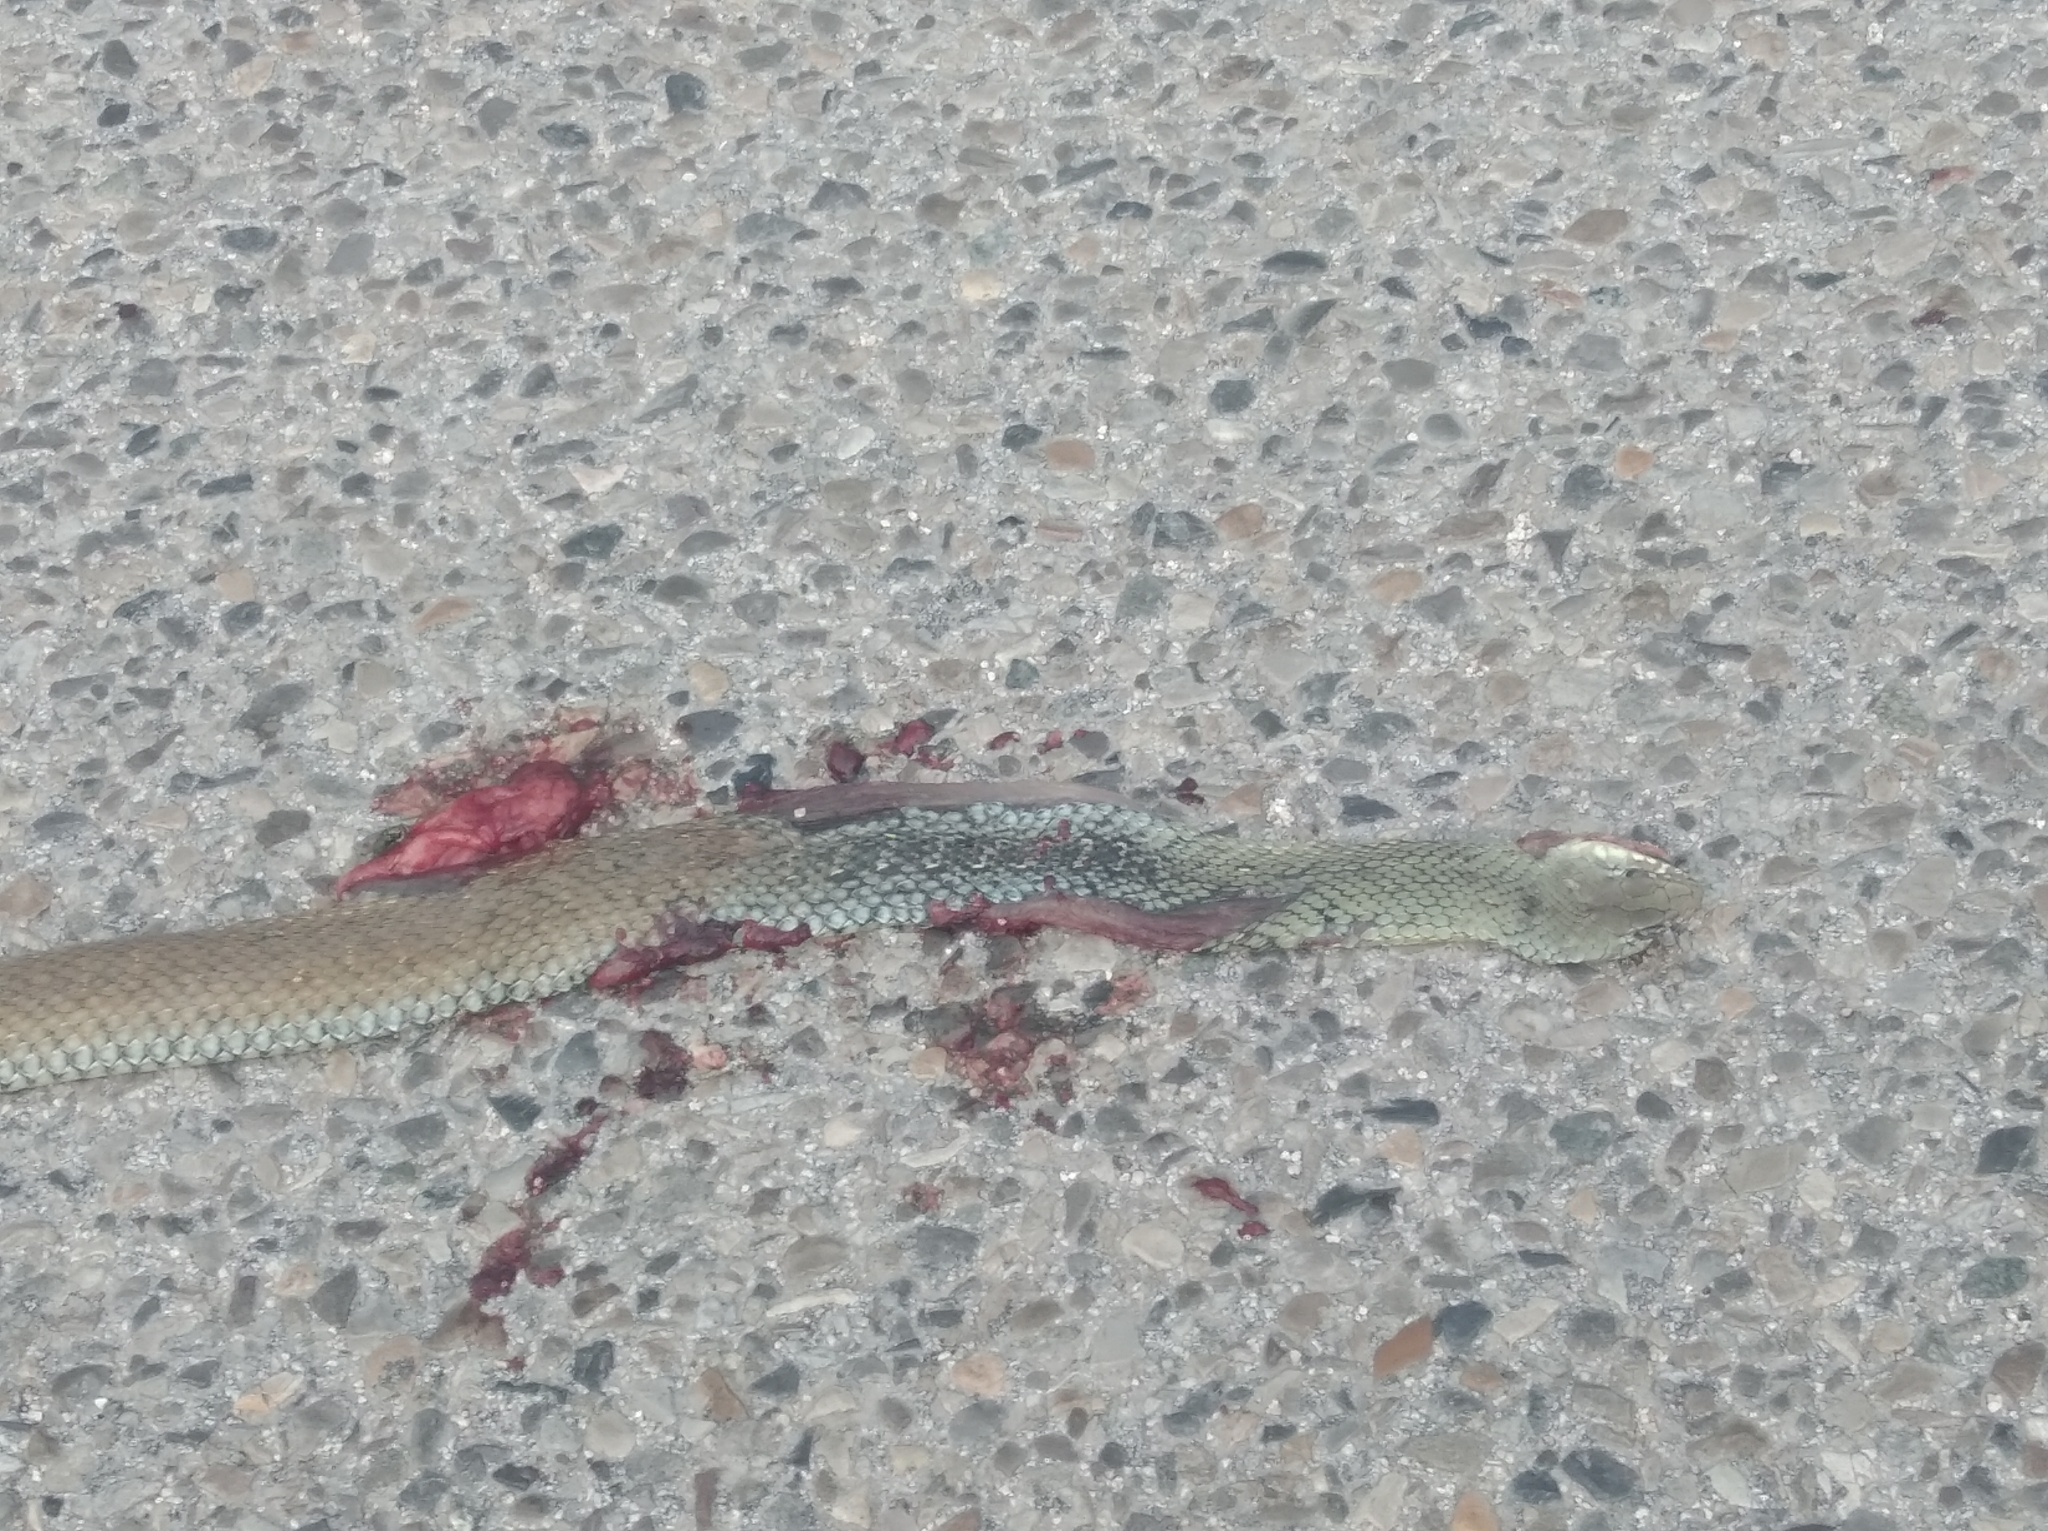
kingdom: Animalia
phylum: Chordata
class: Squamata
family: Psammophiidae
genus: Malpolon
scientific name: Malpolon monspessulanus
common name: Montpellier snake
